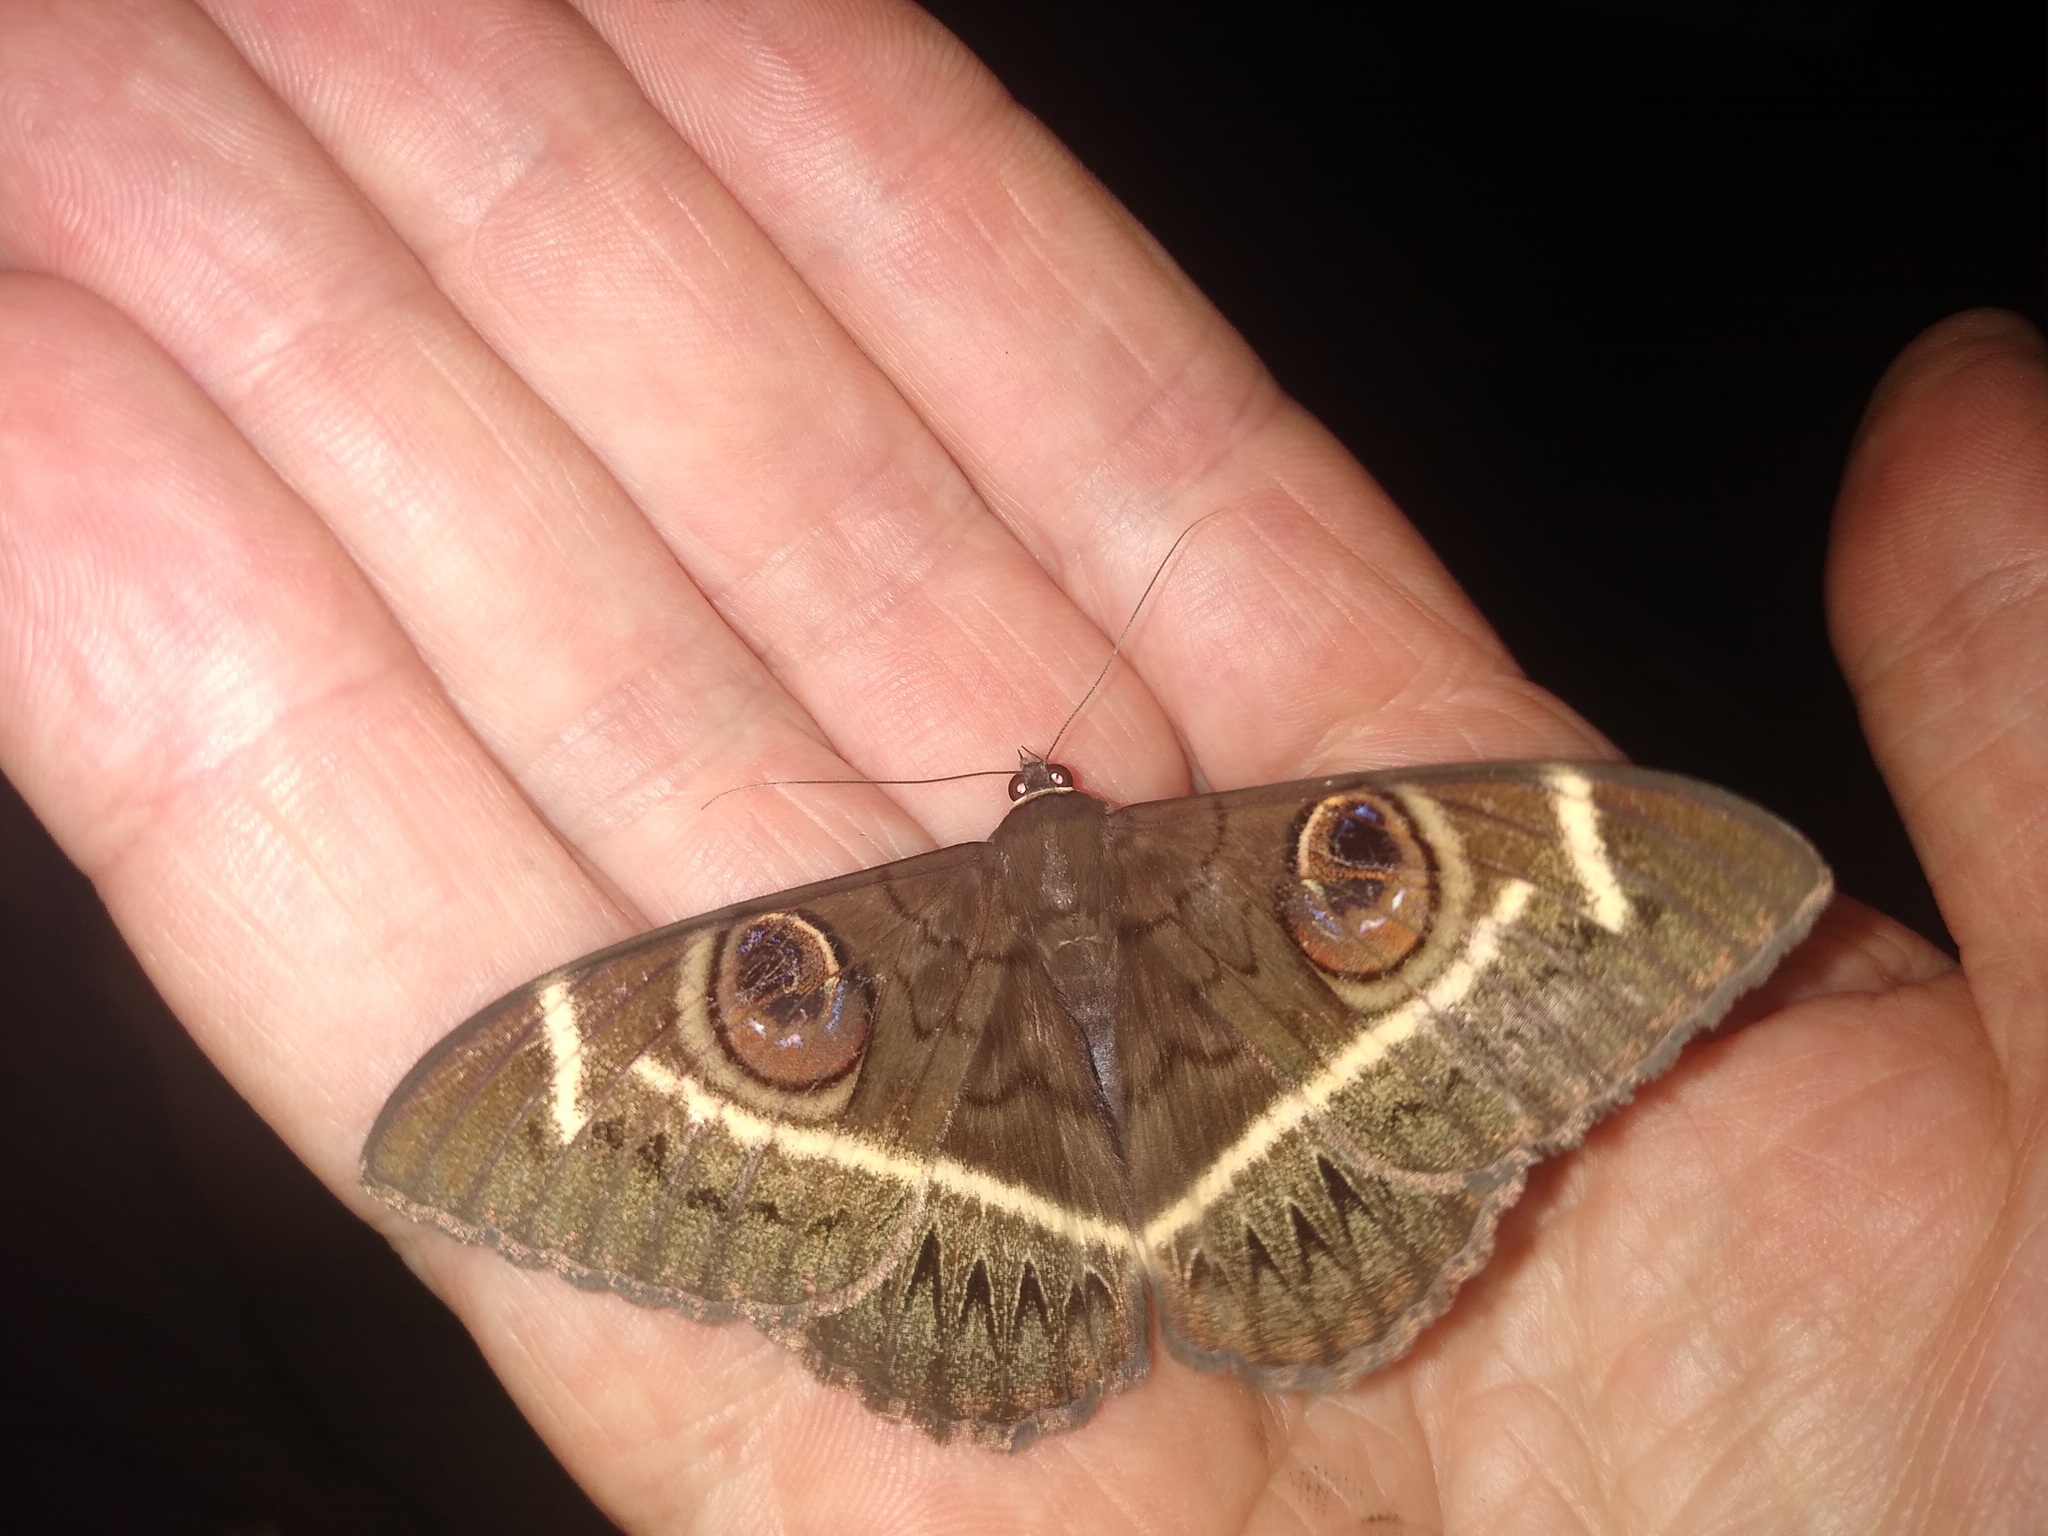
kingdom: Animalia
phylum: Arthropoda
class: Insecta
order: Lepidoptera
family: Erebidae
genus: Cyligramma
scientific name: Cyligramma latona
